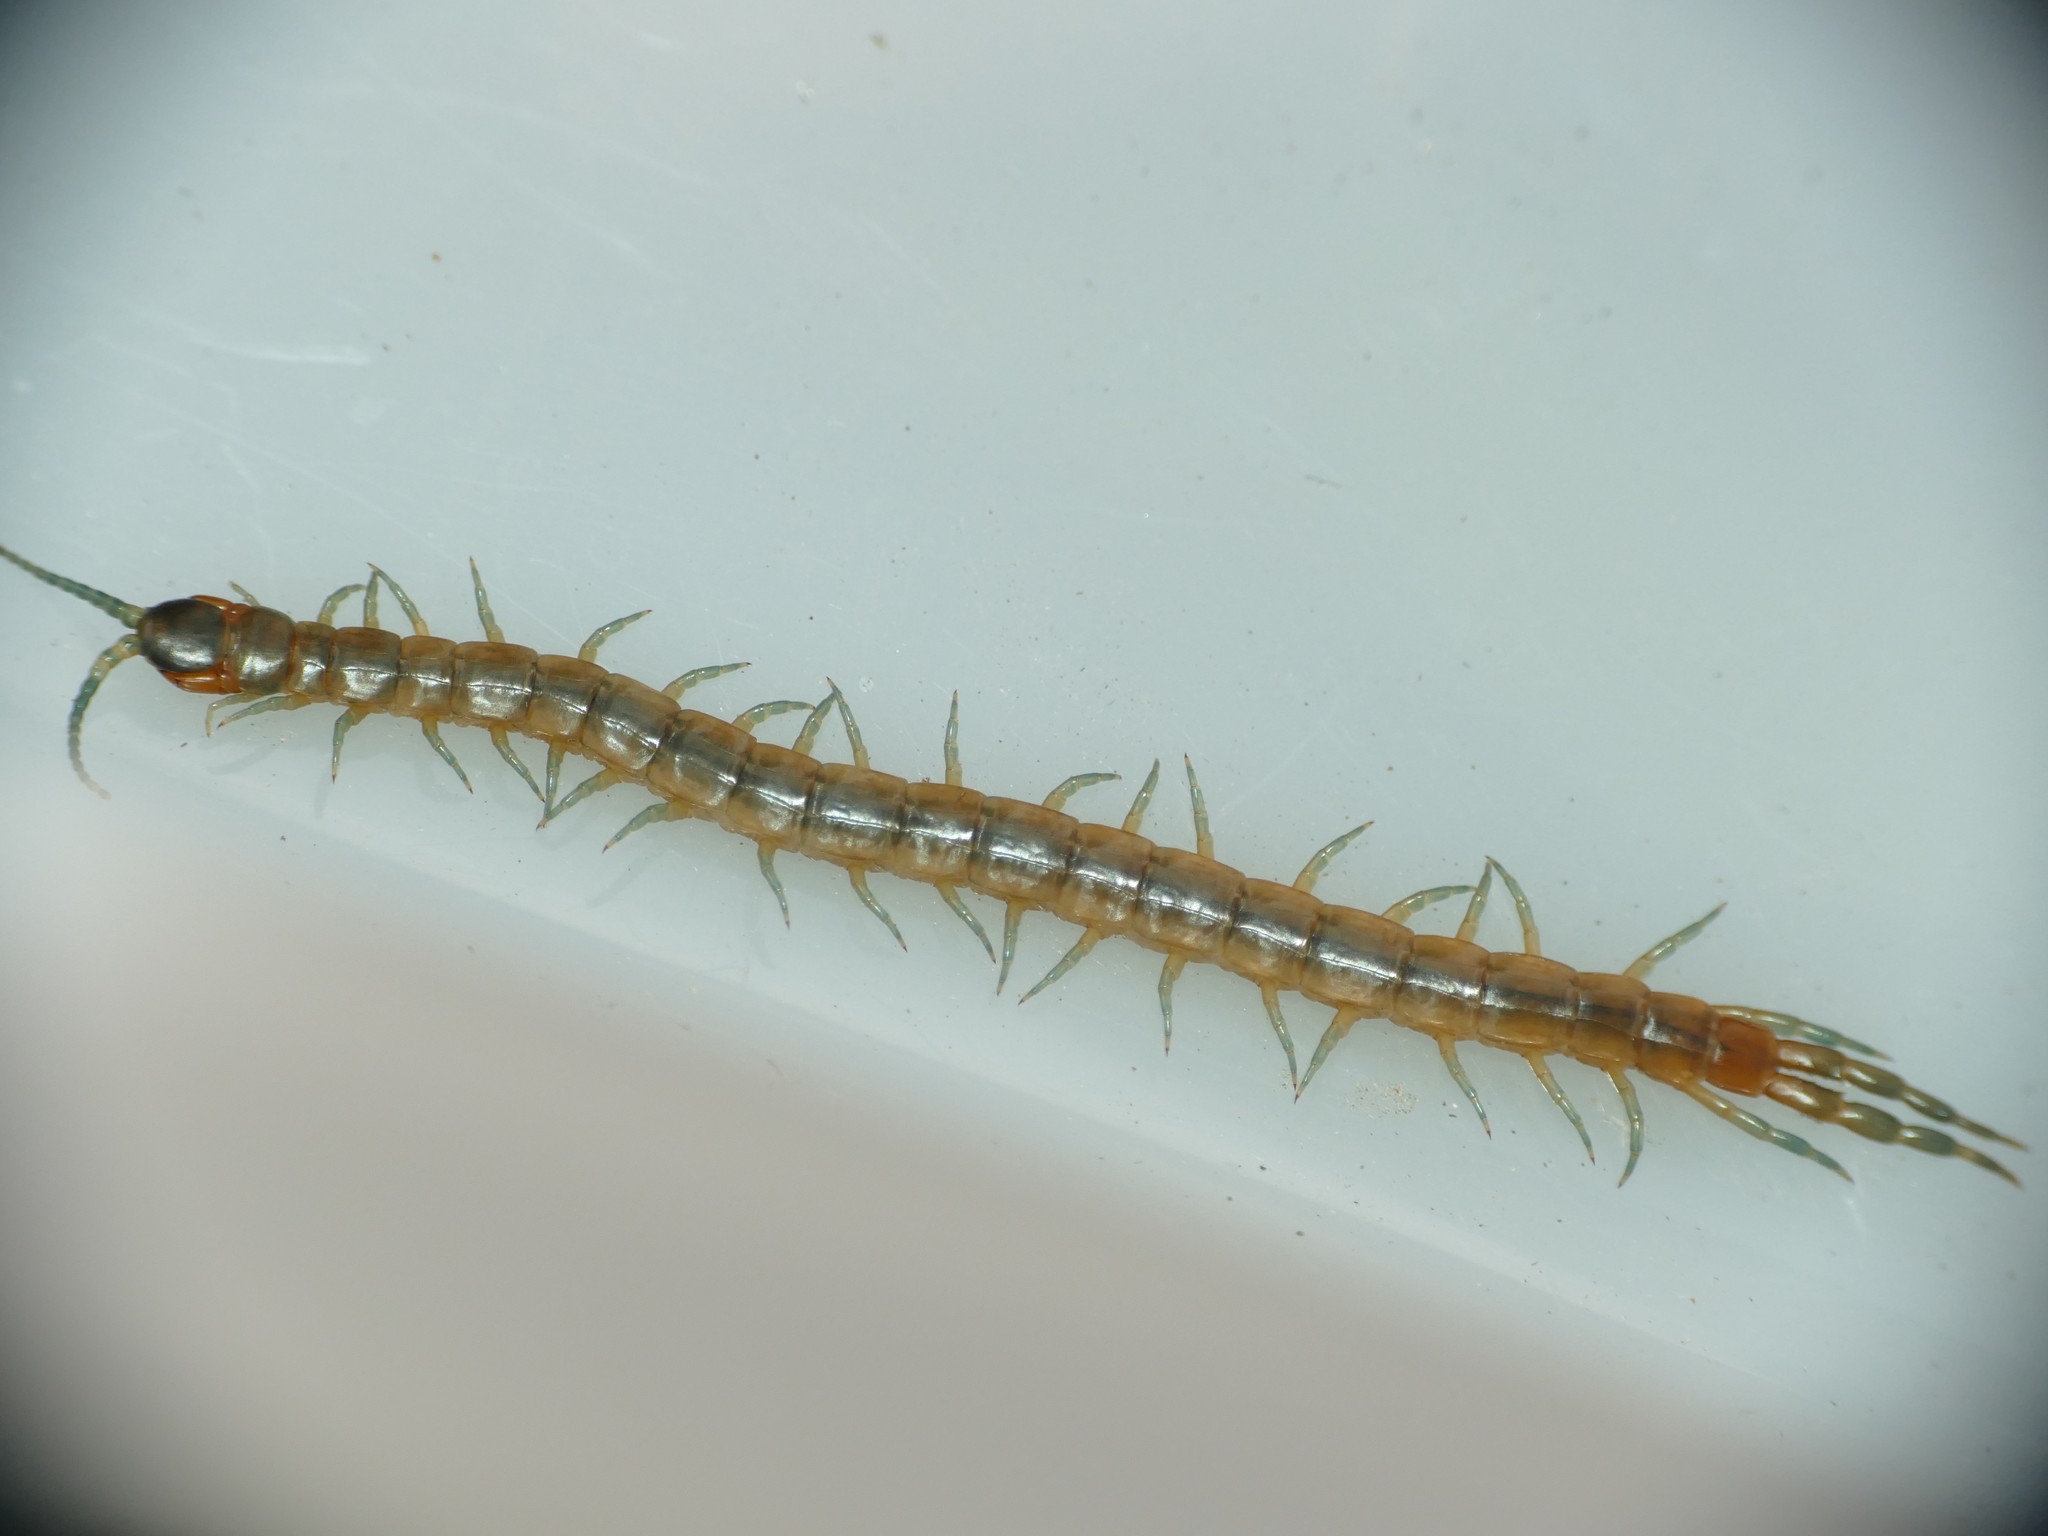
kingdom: Animalia
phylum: Arthropoda
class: Chilopoda
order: Scolopendromorpha
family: Scolopendridae
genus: Scolopendra
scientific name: Scolopendra oraniensis
